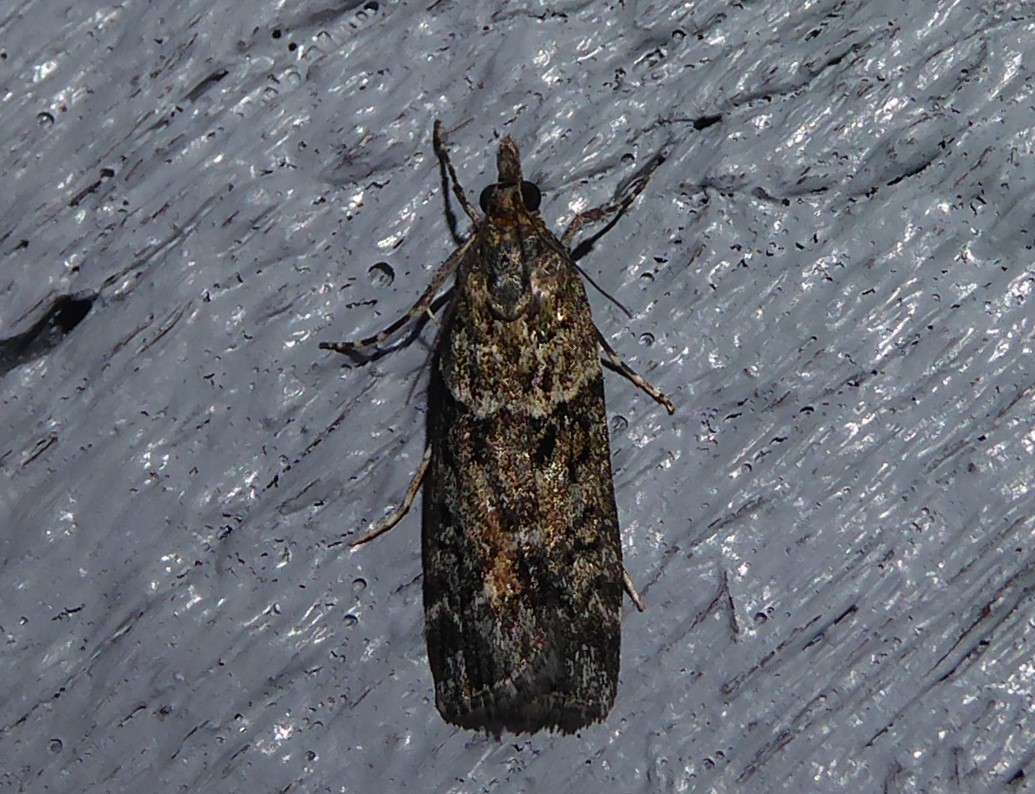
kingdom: Animalia
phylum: Arthropoda
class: Insecta
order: Lepidoptera
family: Crambidae
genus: Eudonia
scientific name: Eudonia submarginalis
